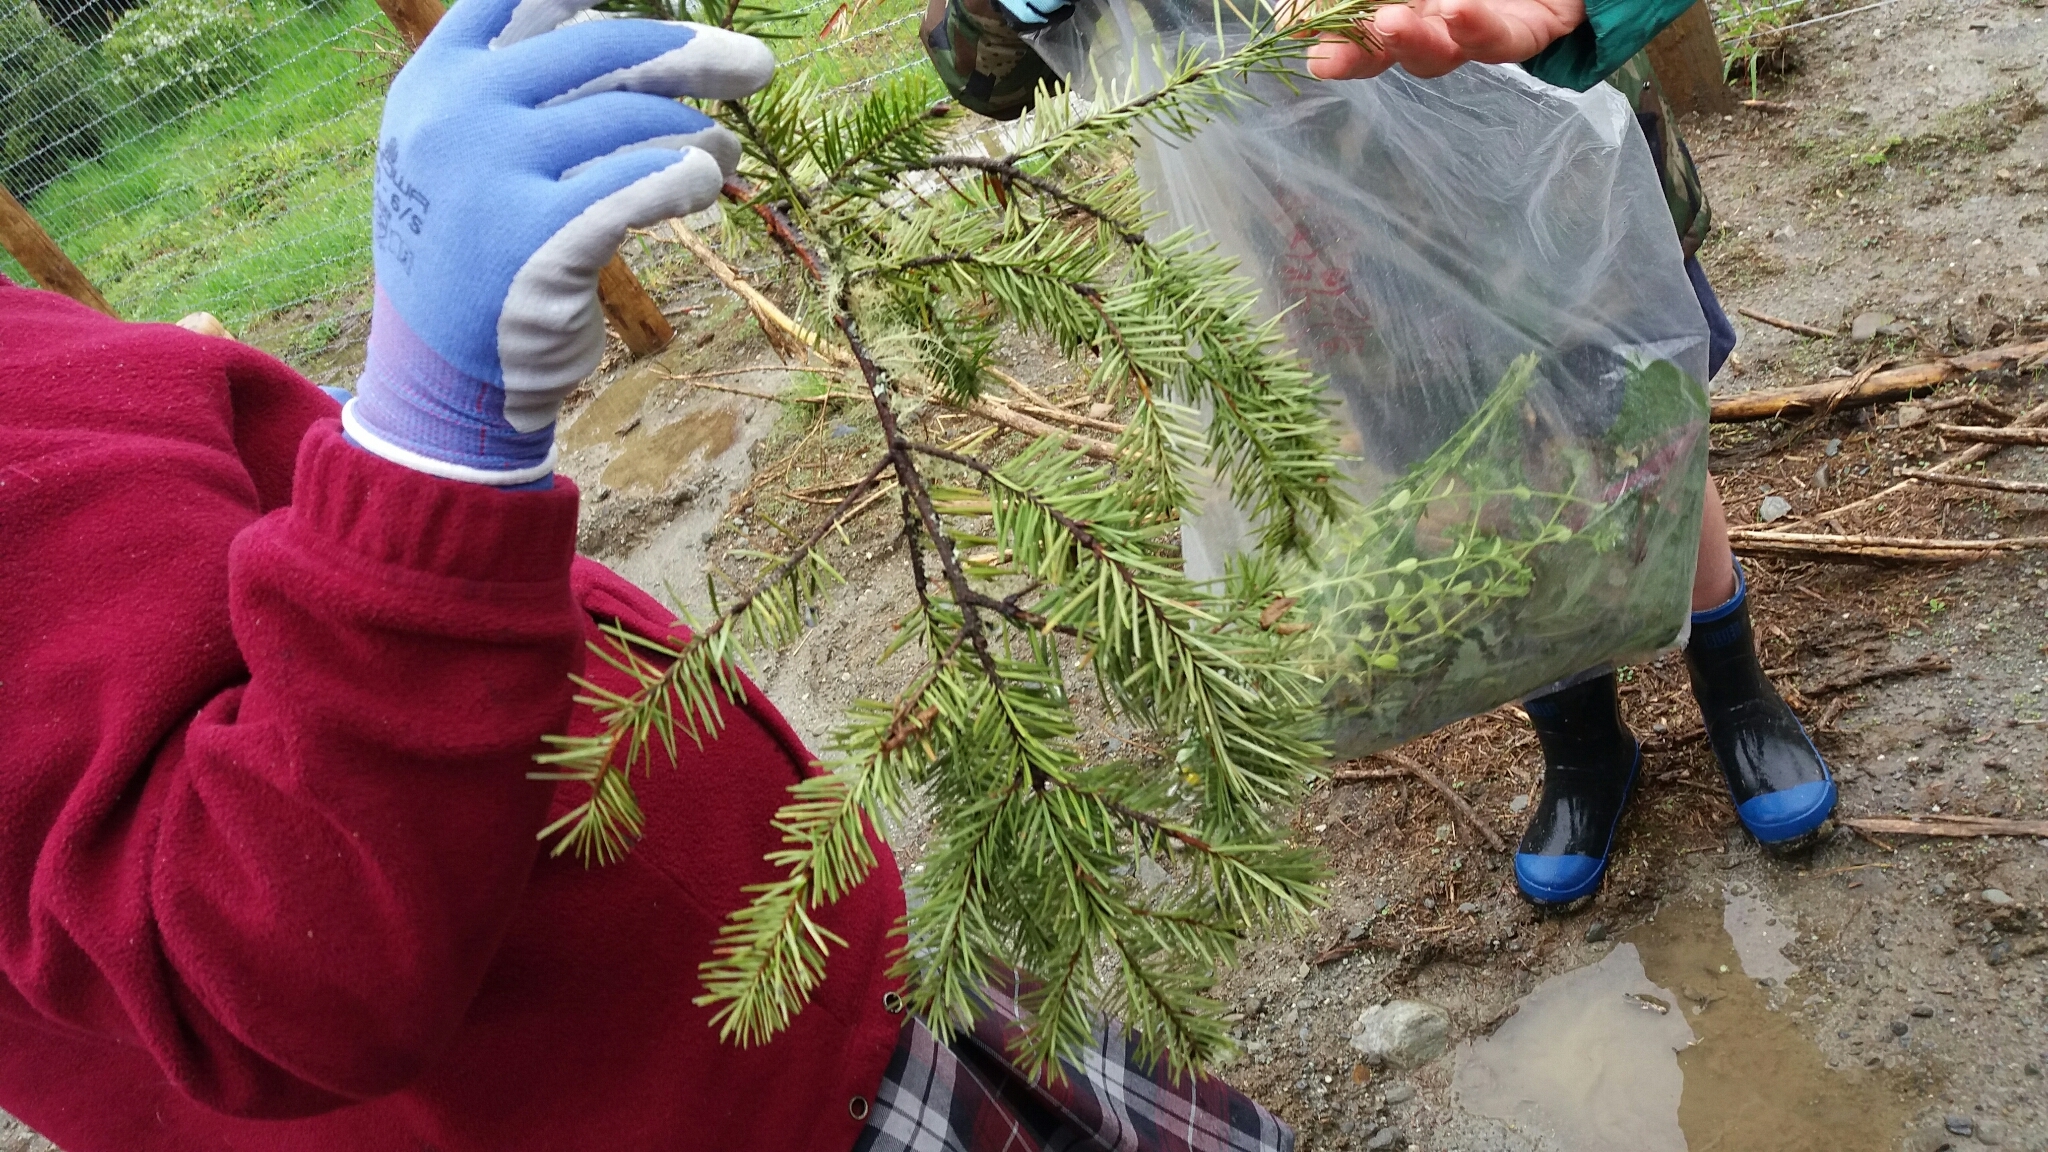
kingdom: Plantae
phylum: Tracheophyta
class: Pinopsida
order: Pinales
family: Pinaceae
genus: Pseudotsuga
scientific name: Pseudotsuga menziesii
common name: Douglas fir
